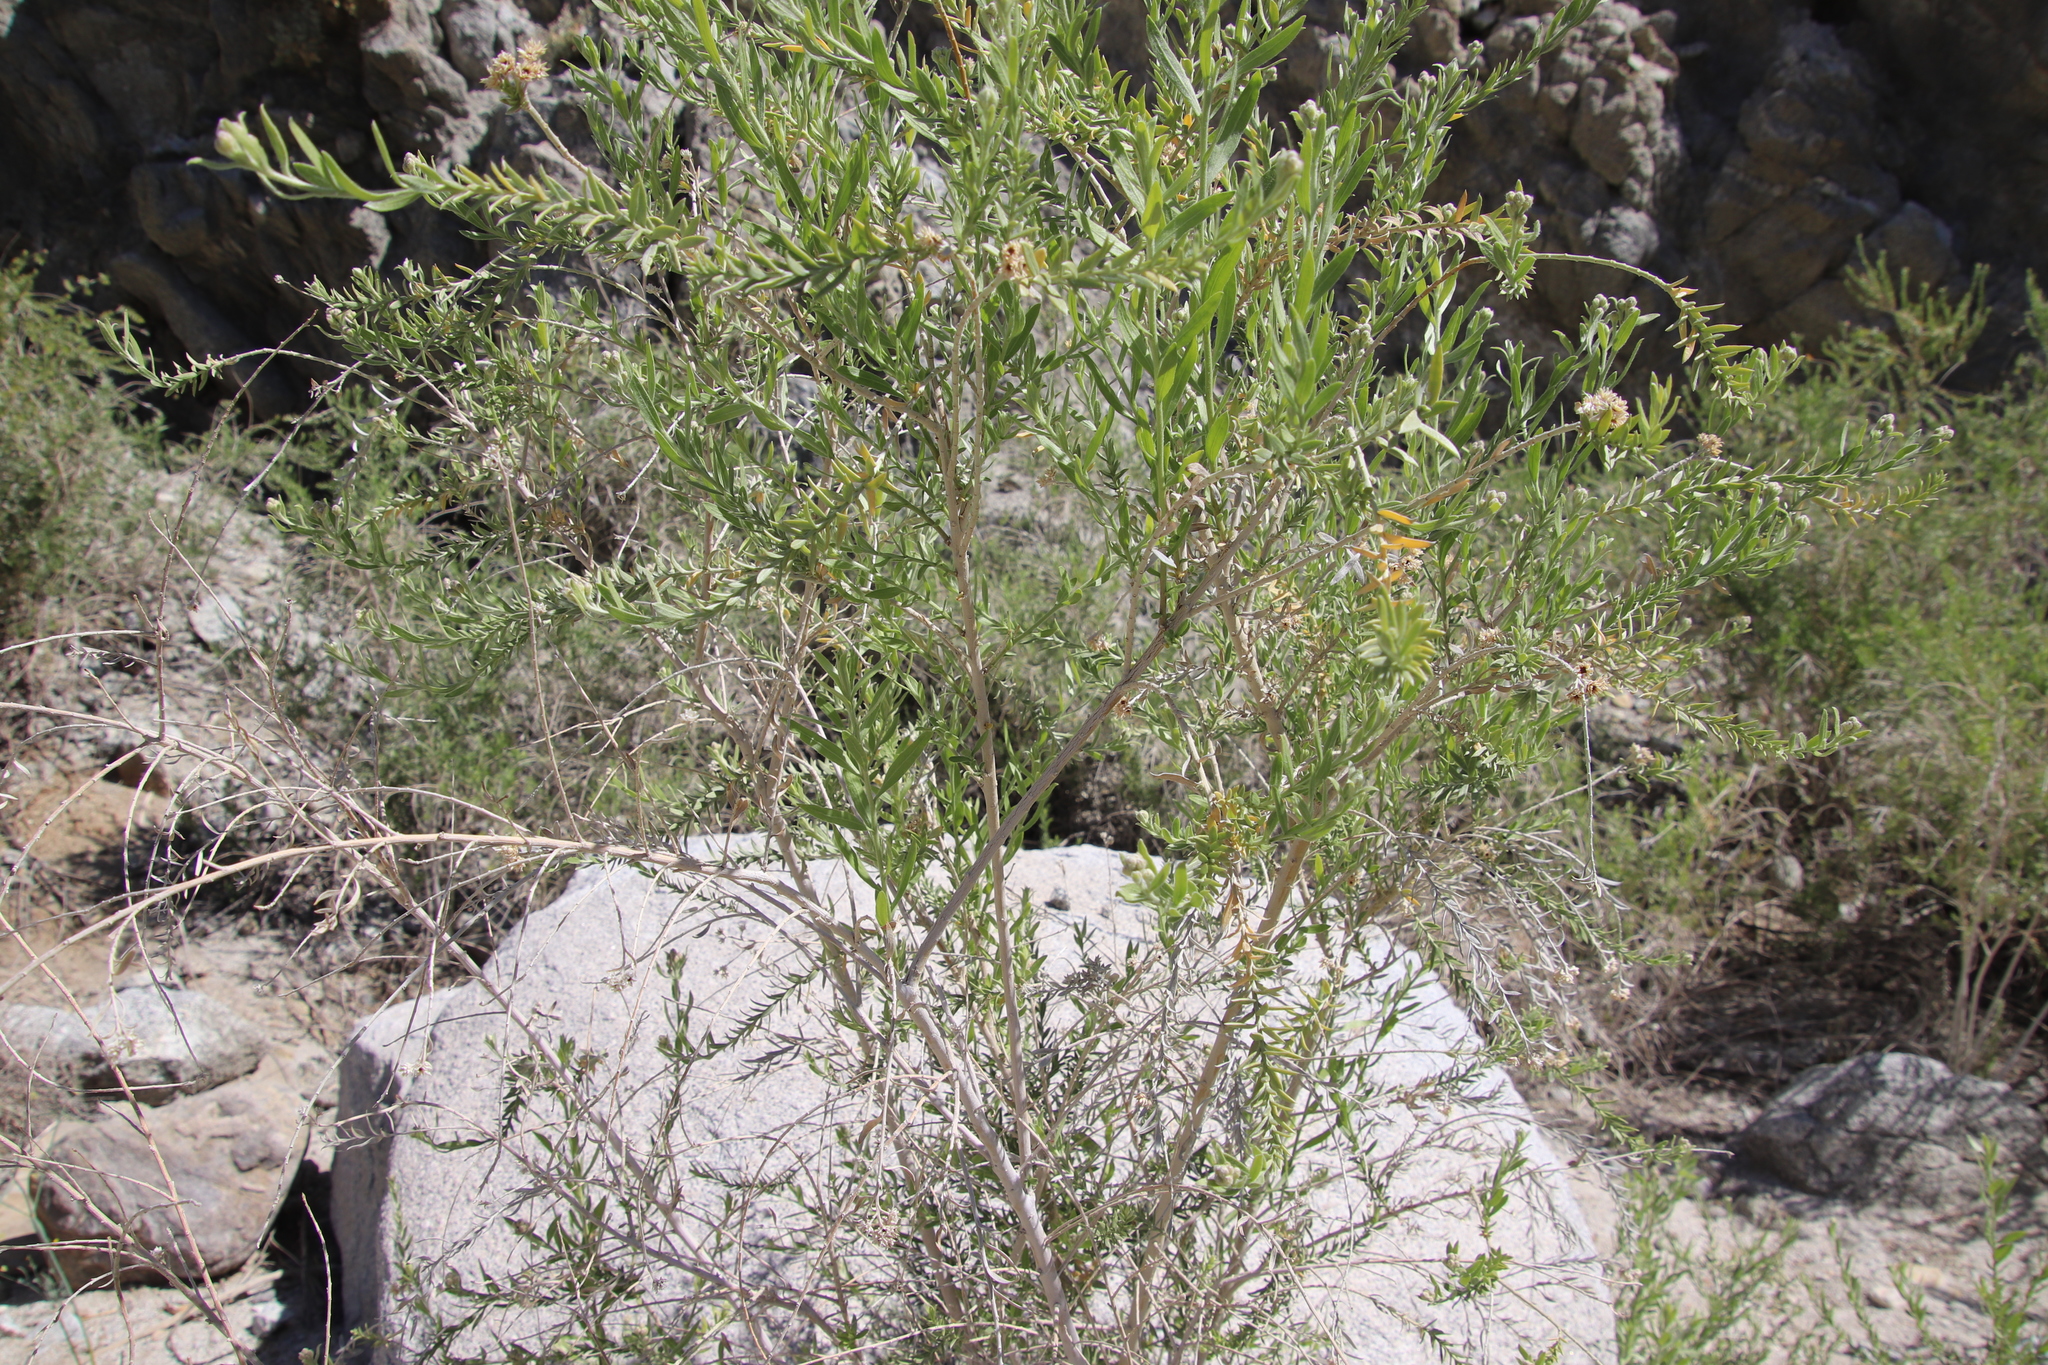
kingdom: Plantae
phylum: Tracheophyta
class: Magnoliopsida
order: Asterales
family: Asteraceae
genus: Pluchea
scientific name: Pluchea sericea
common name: Arrow-weed
